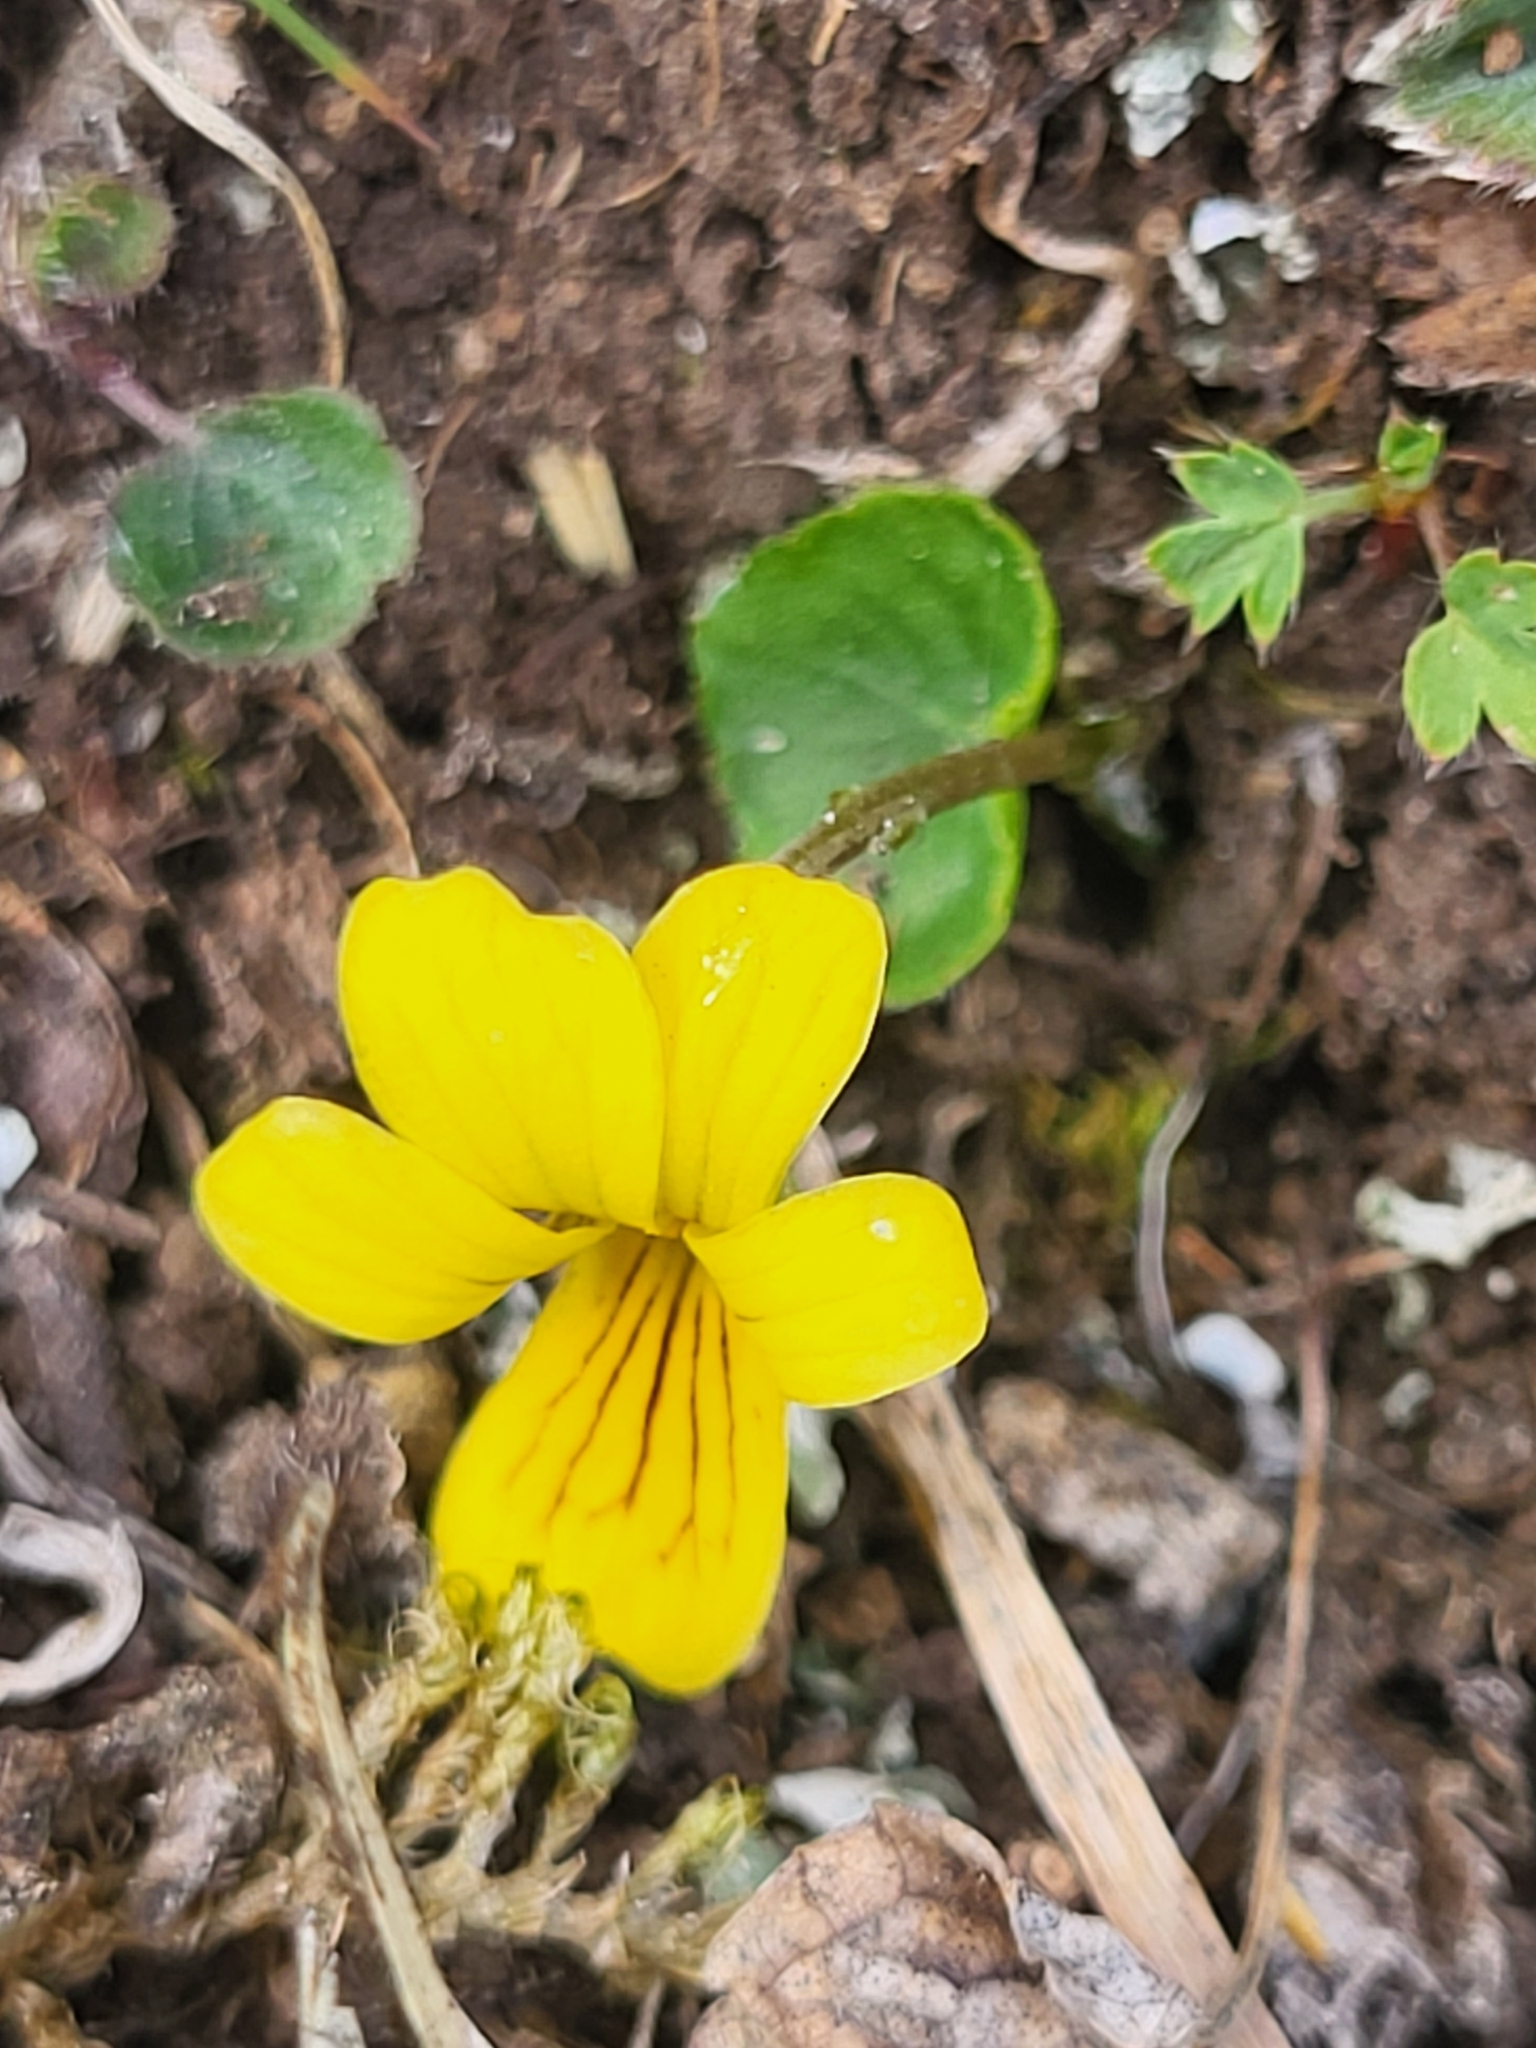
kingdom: Plantae
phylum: Tracheophyta
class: Magnoliopsida
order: Malpighiales
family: Violaceae
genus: Viola
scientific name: Viola biflora
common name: Alpine yellow violet
